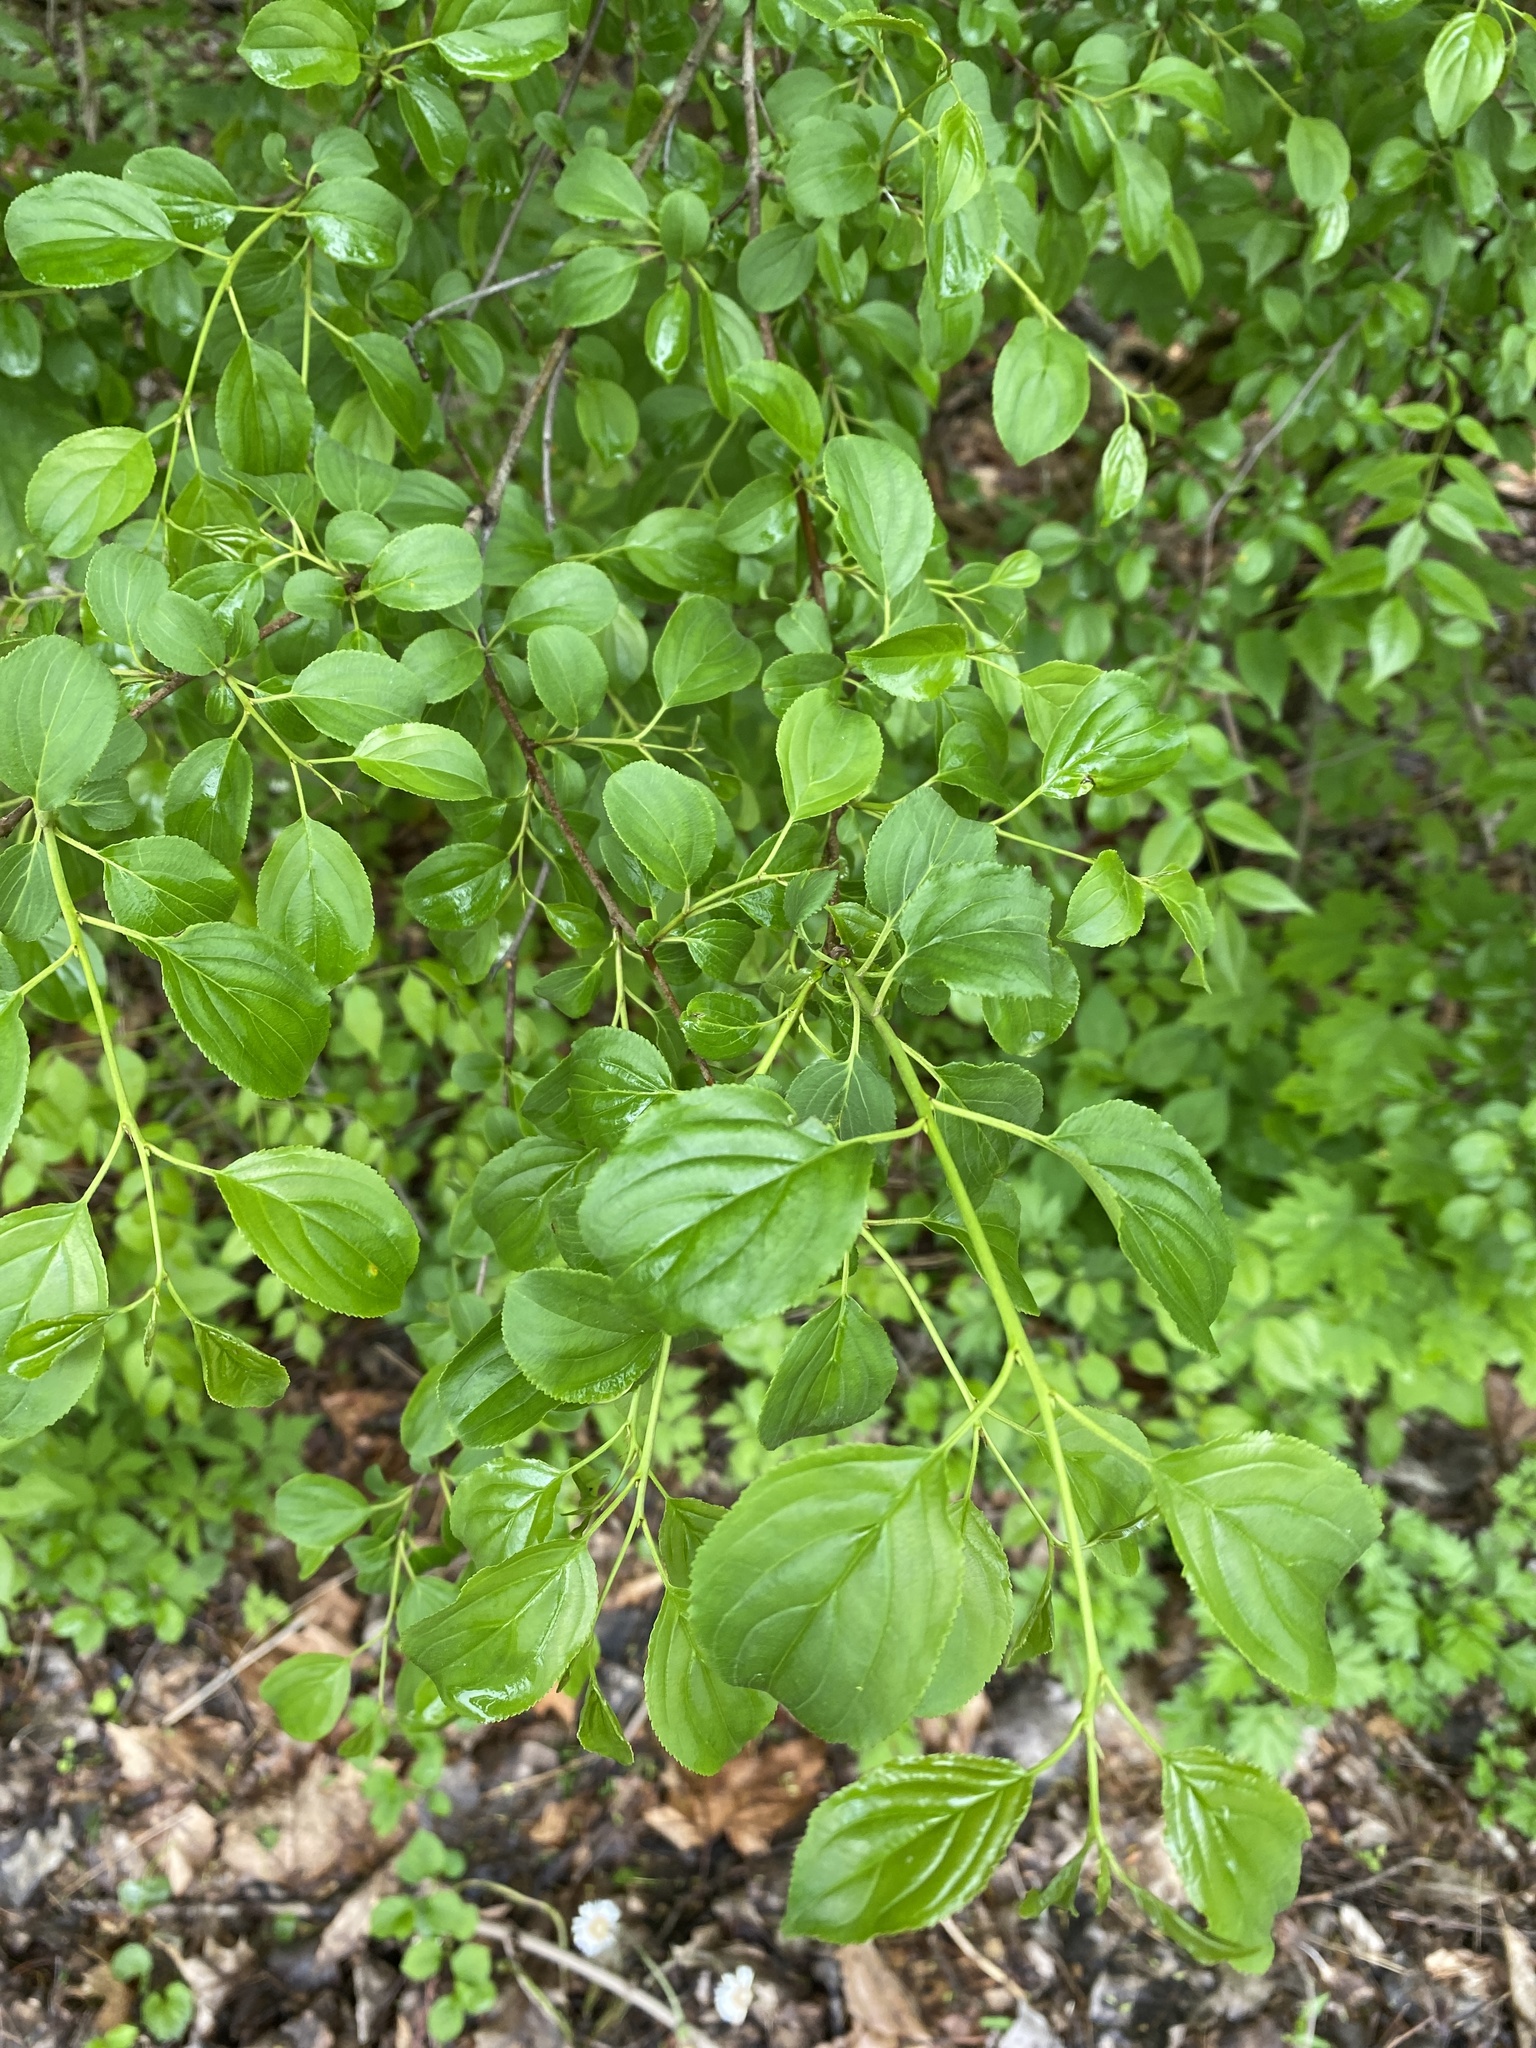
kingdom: Plantae
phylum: Tracheophyta
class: Magnoliopsida
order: Rosales
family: Rhamnaceae
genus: Rhamnus
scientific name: Rhamnus cathartica
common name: Common buckthorn
